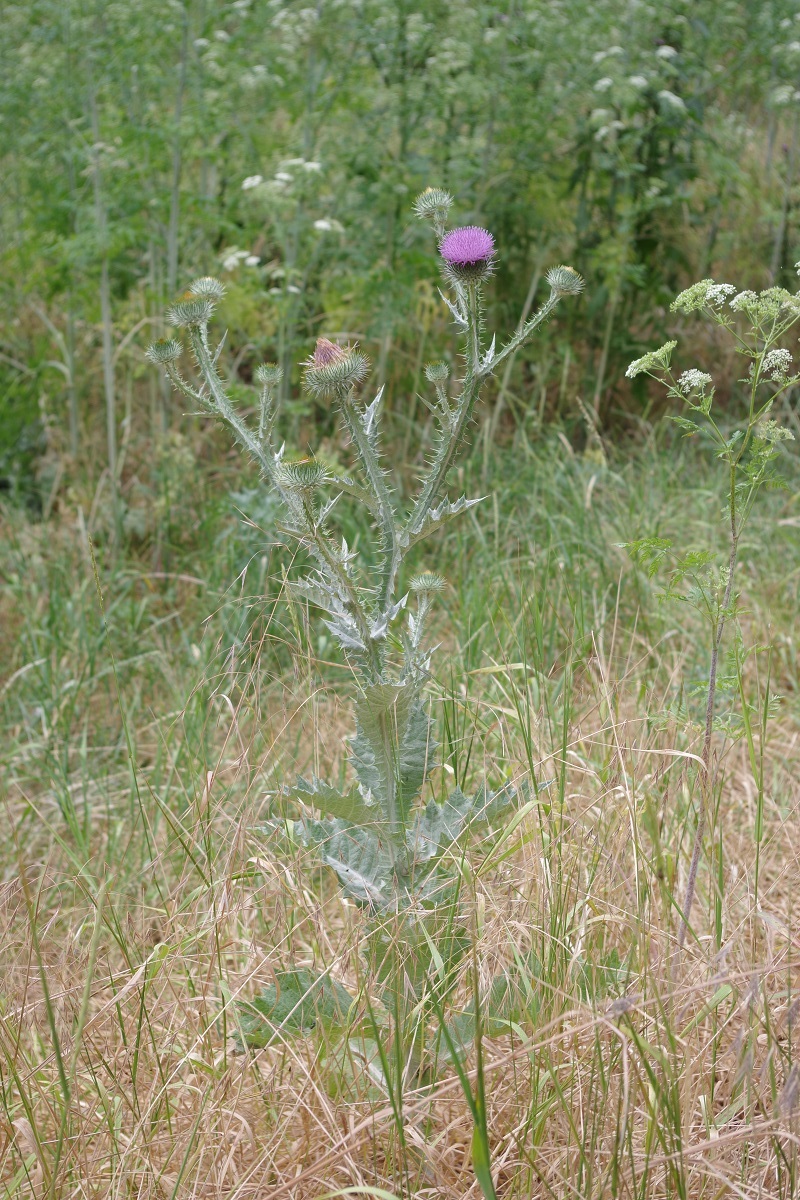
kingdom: Plantae
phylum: Tracheophyta
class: Magnoliopsida
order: Asterales
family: Asteraceae
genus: Onopordum
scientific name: Onopordum acanthium
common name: Scotch thistle
